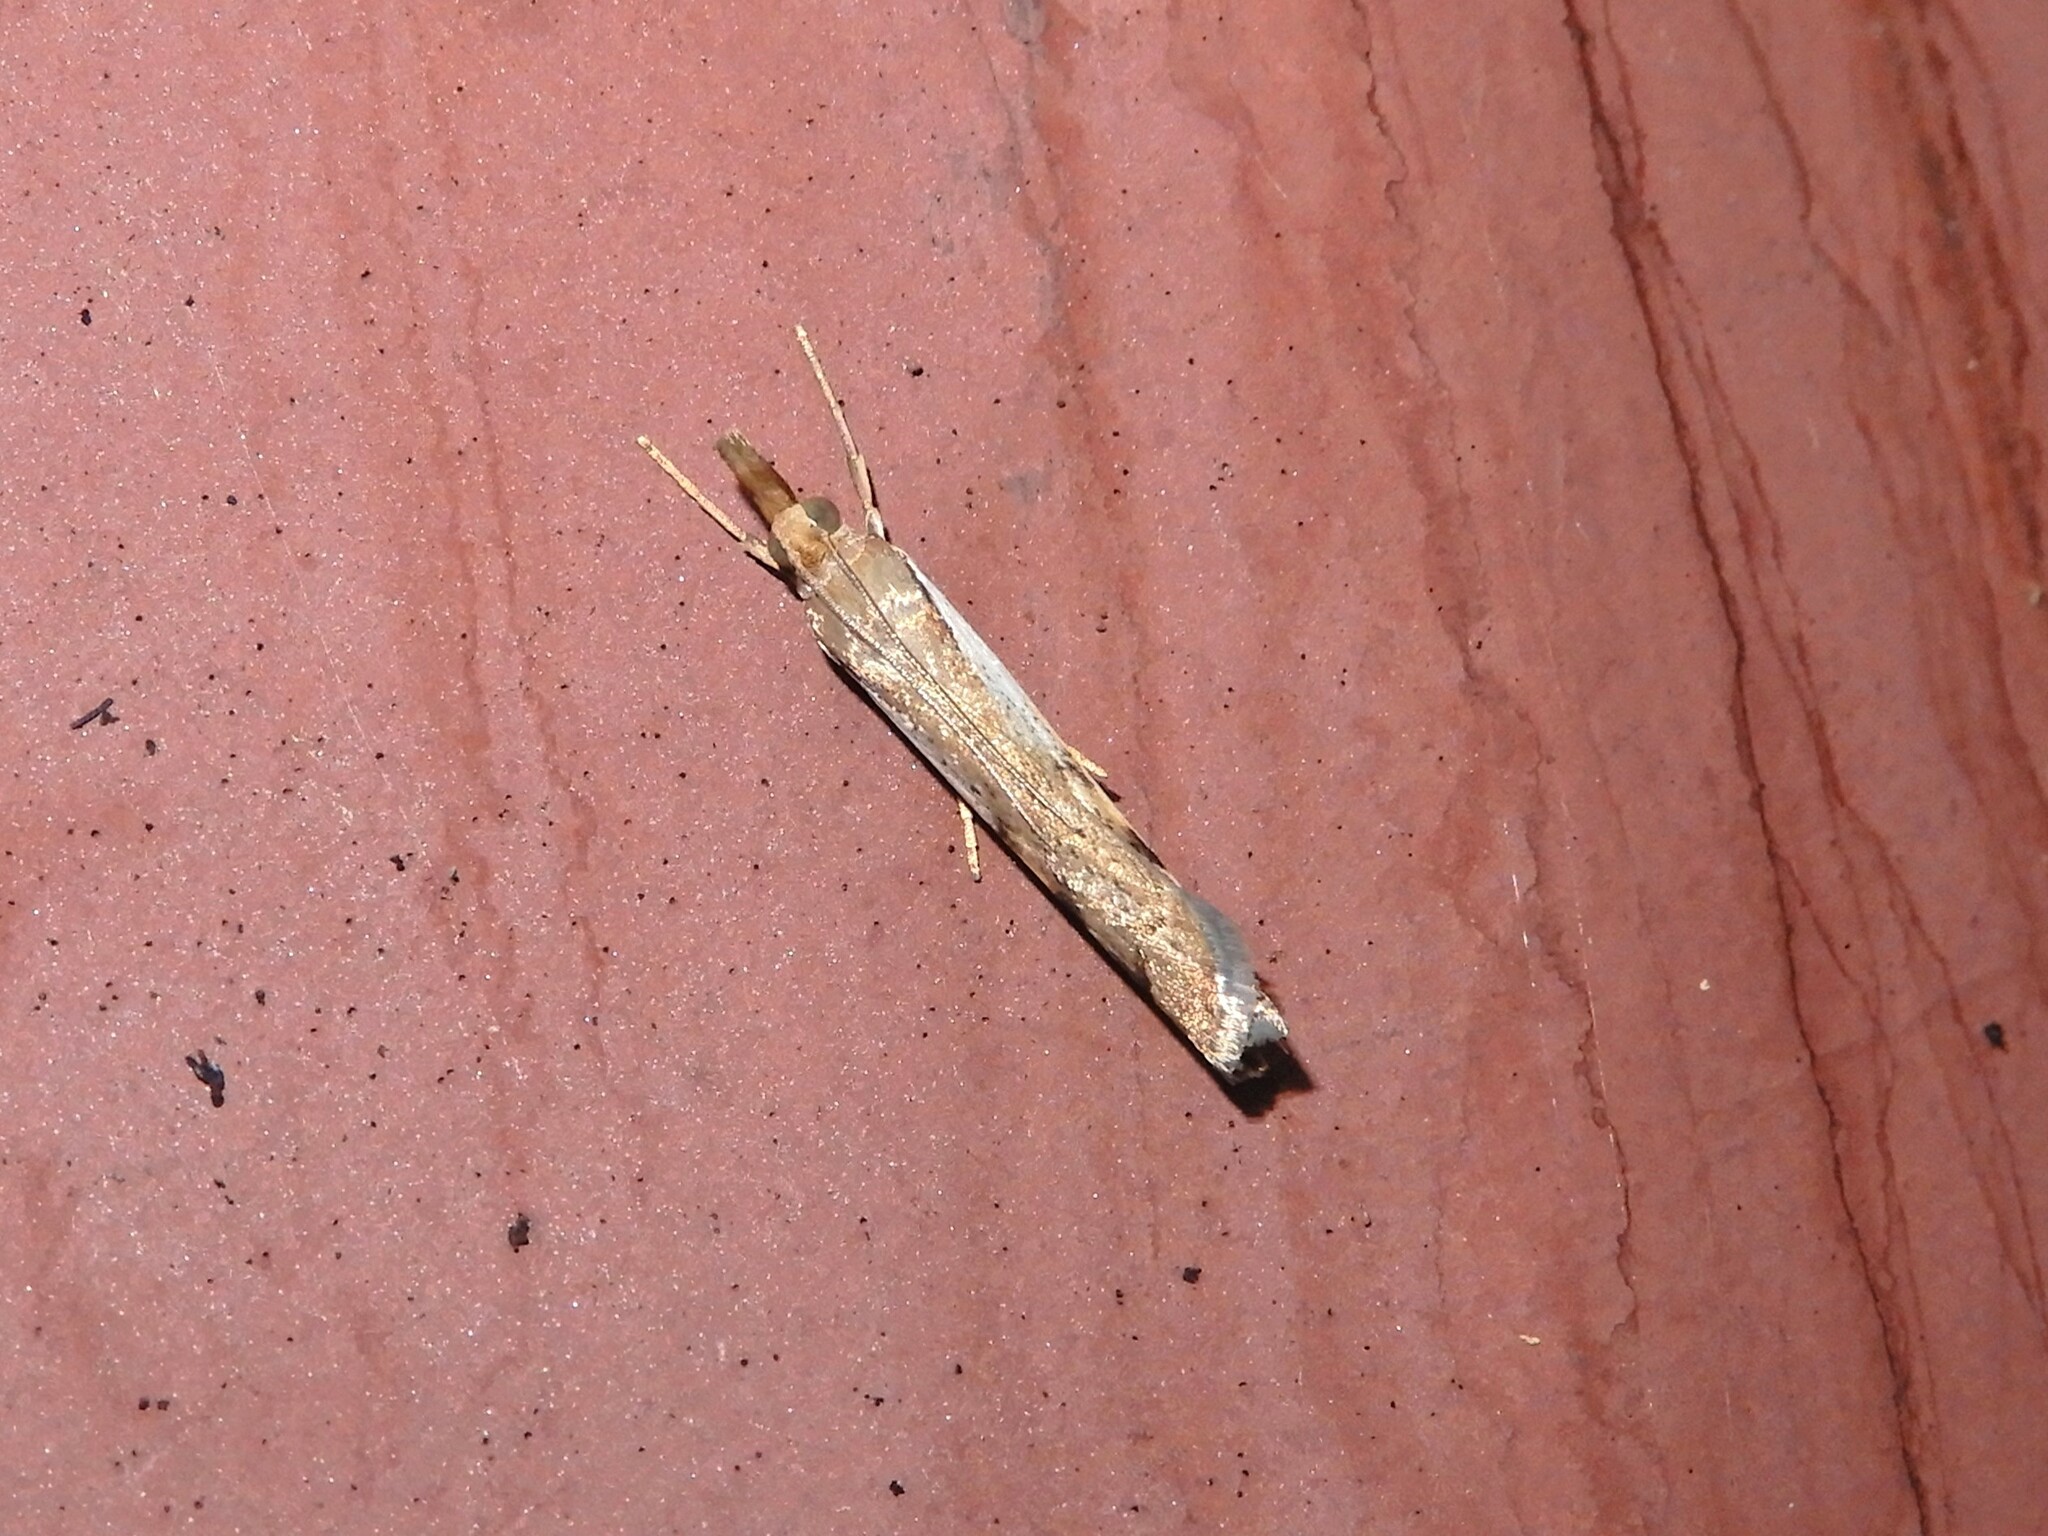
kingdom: Animalia
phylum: Arthropoda
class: Insecta
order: Lepidoptera
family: Crambidae
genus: Orocrambus
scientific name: Orocrambus flexuosellus
